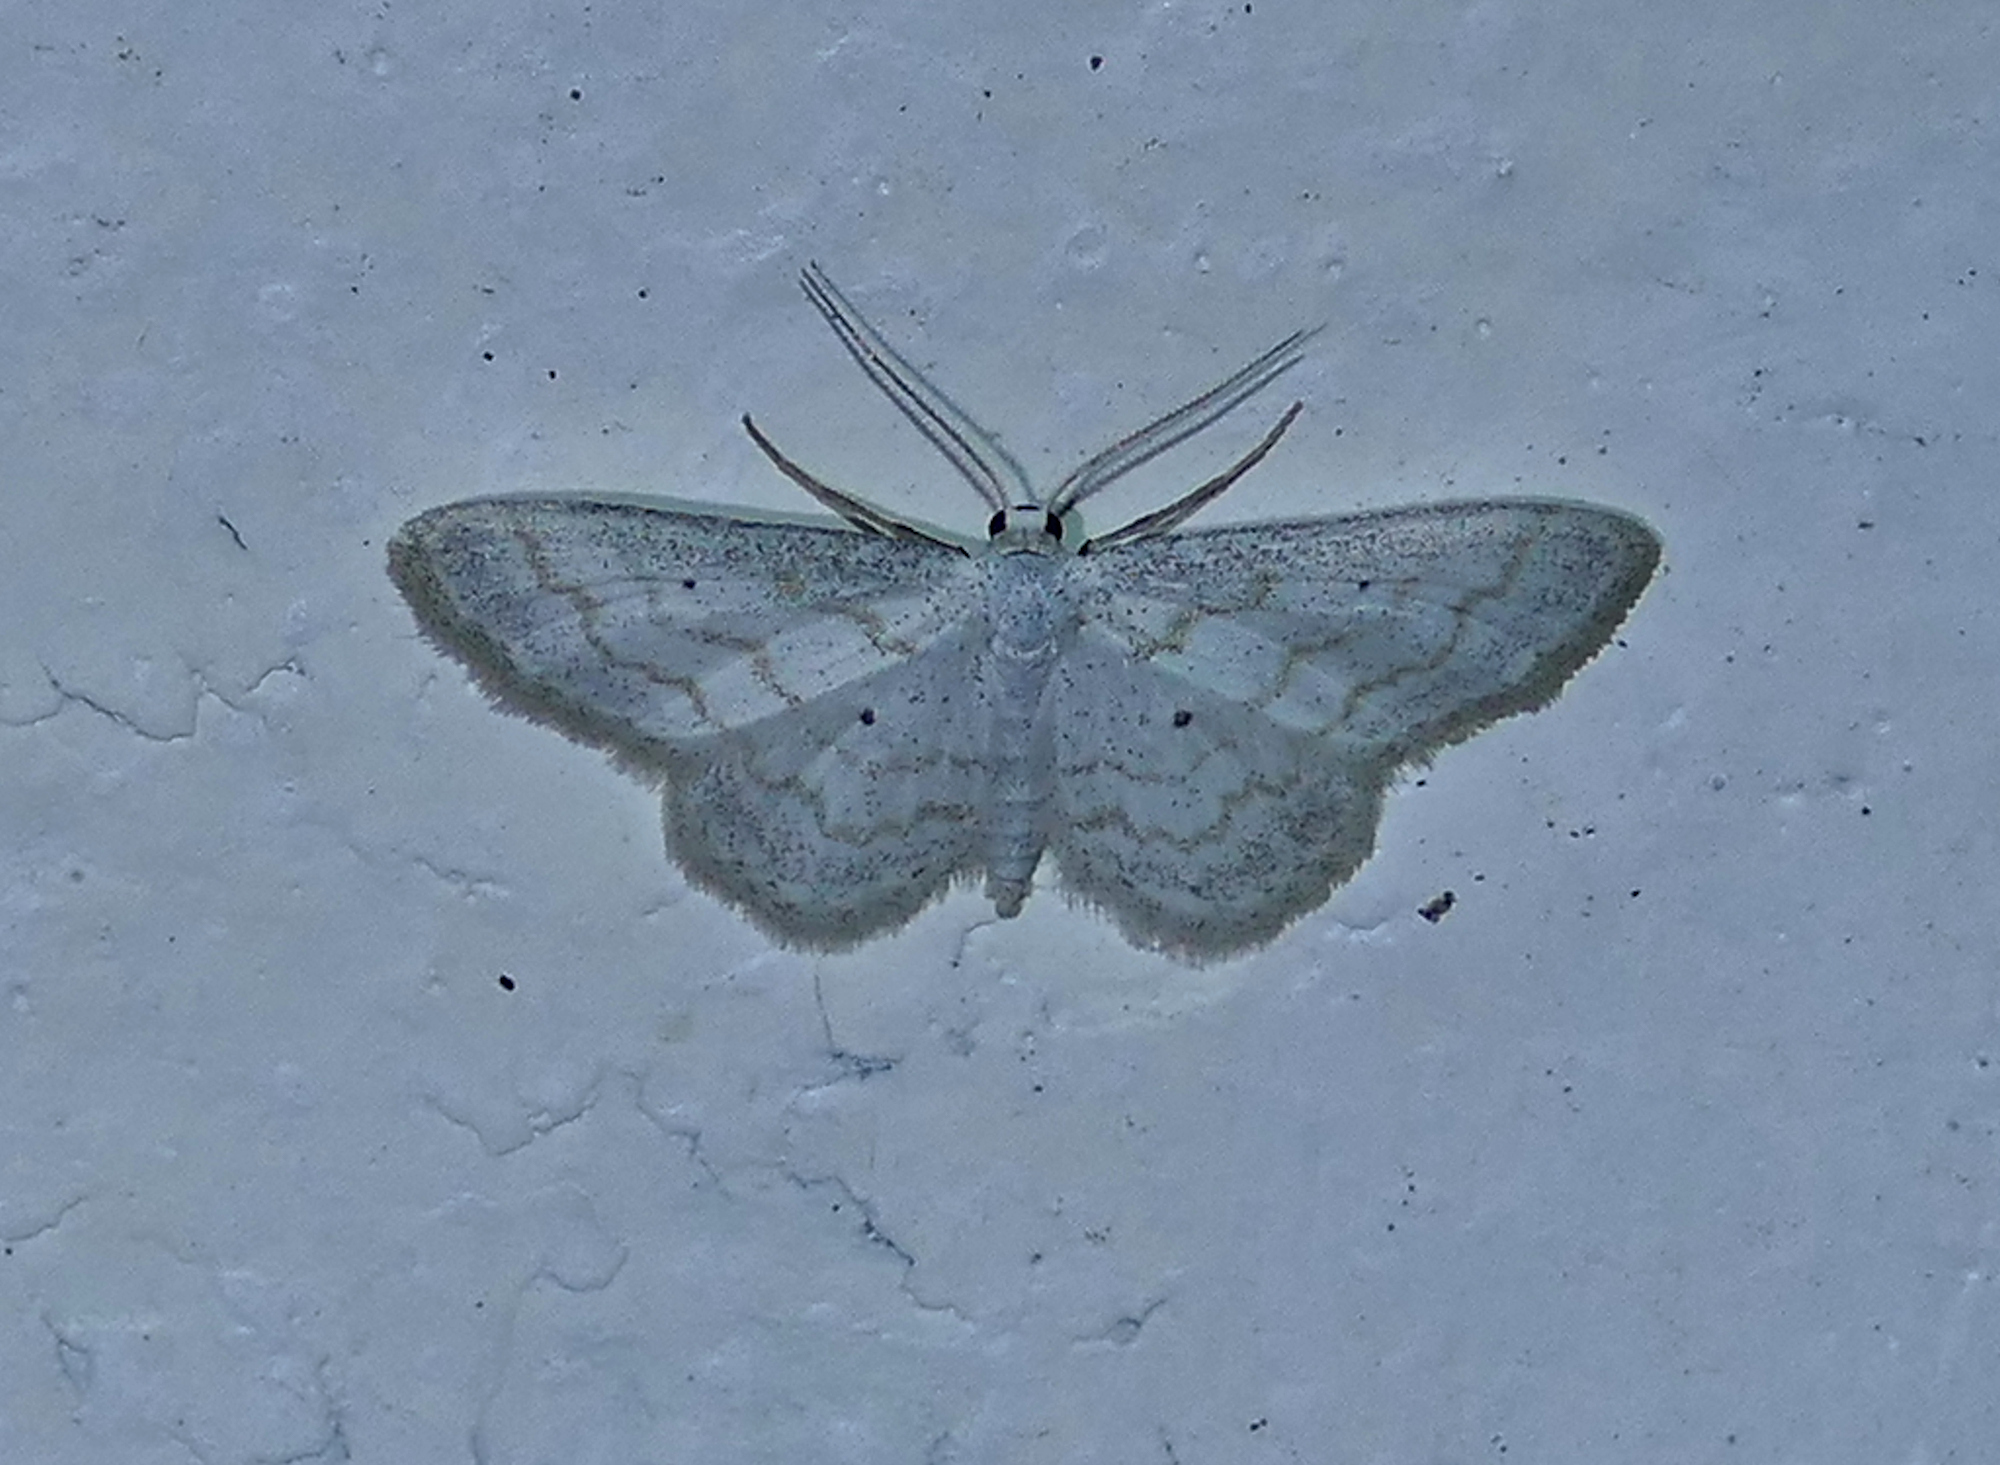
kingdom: Animalia
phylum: Arthropoda
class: Insecta
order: Lepidoptera
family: Geometridae
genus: Lobocleta
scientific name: Lobocleta peralbata
